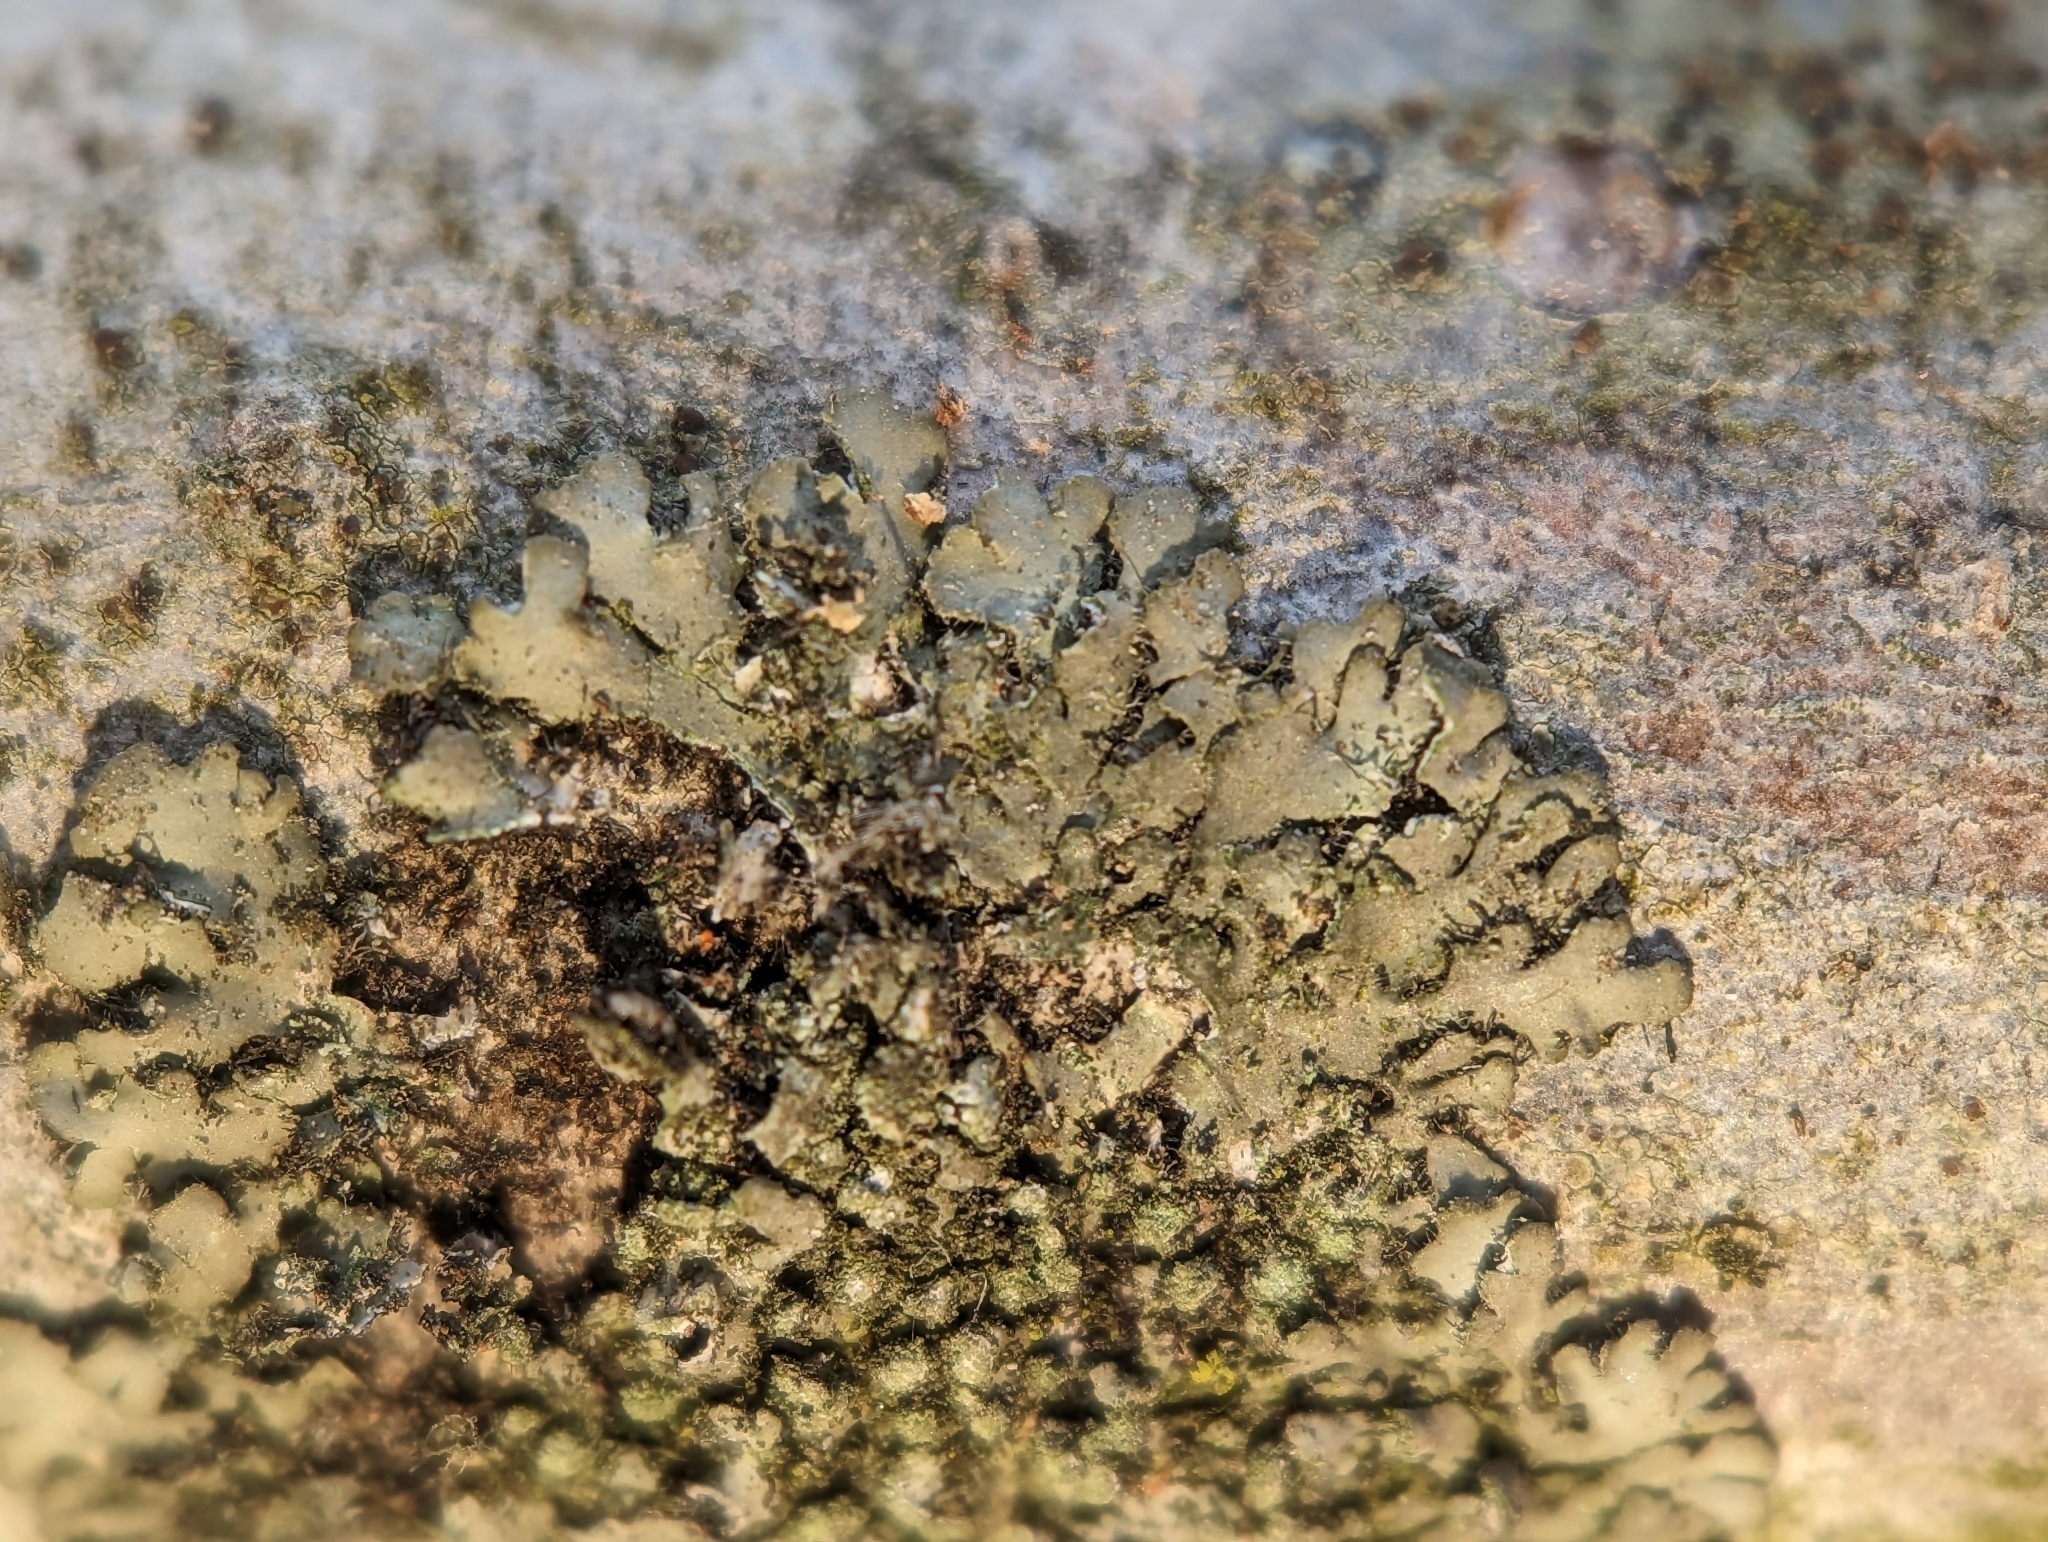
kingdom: Fungi
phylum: Ascomycota
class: Lecanoromycetes
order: Caliciales
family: Physciaceae
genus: Phaeophyscia
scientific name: Phaeophyscia rubropulchra
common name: Orange-cored shadow lichen
